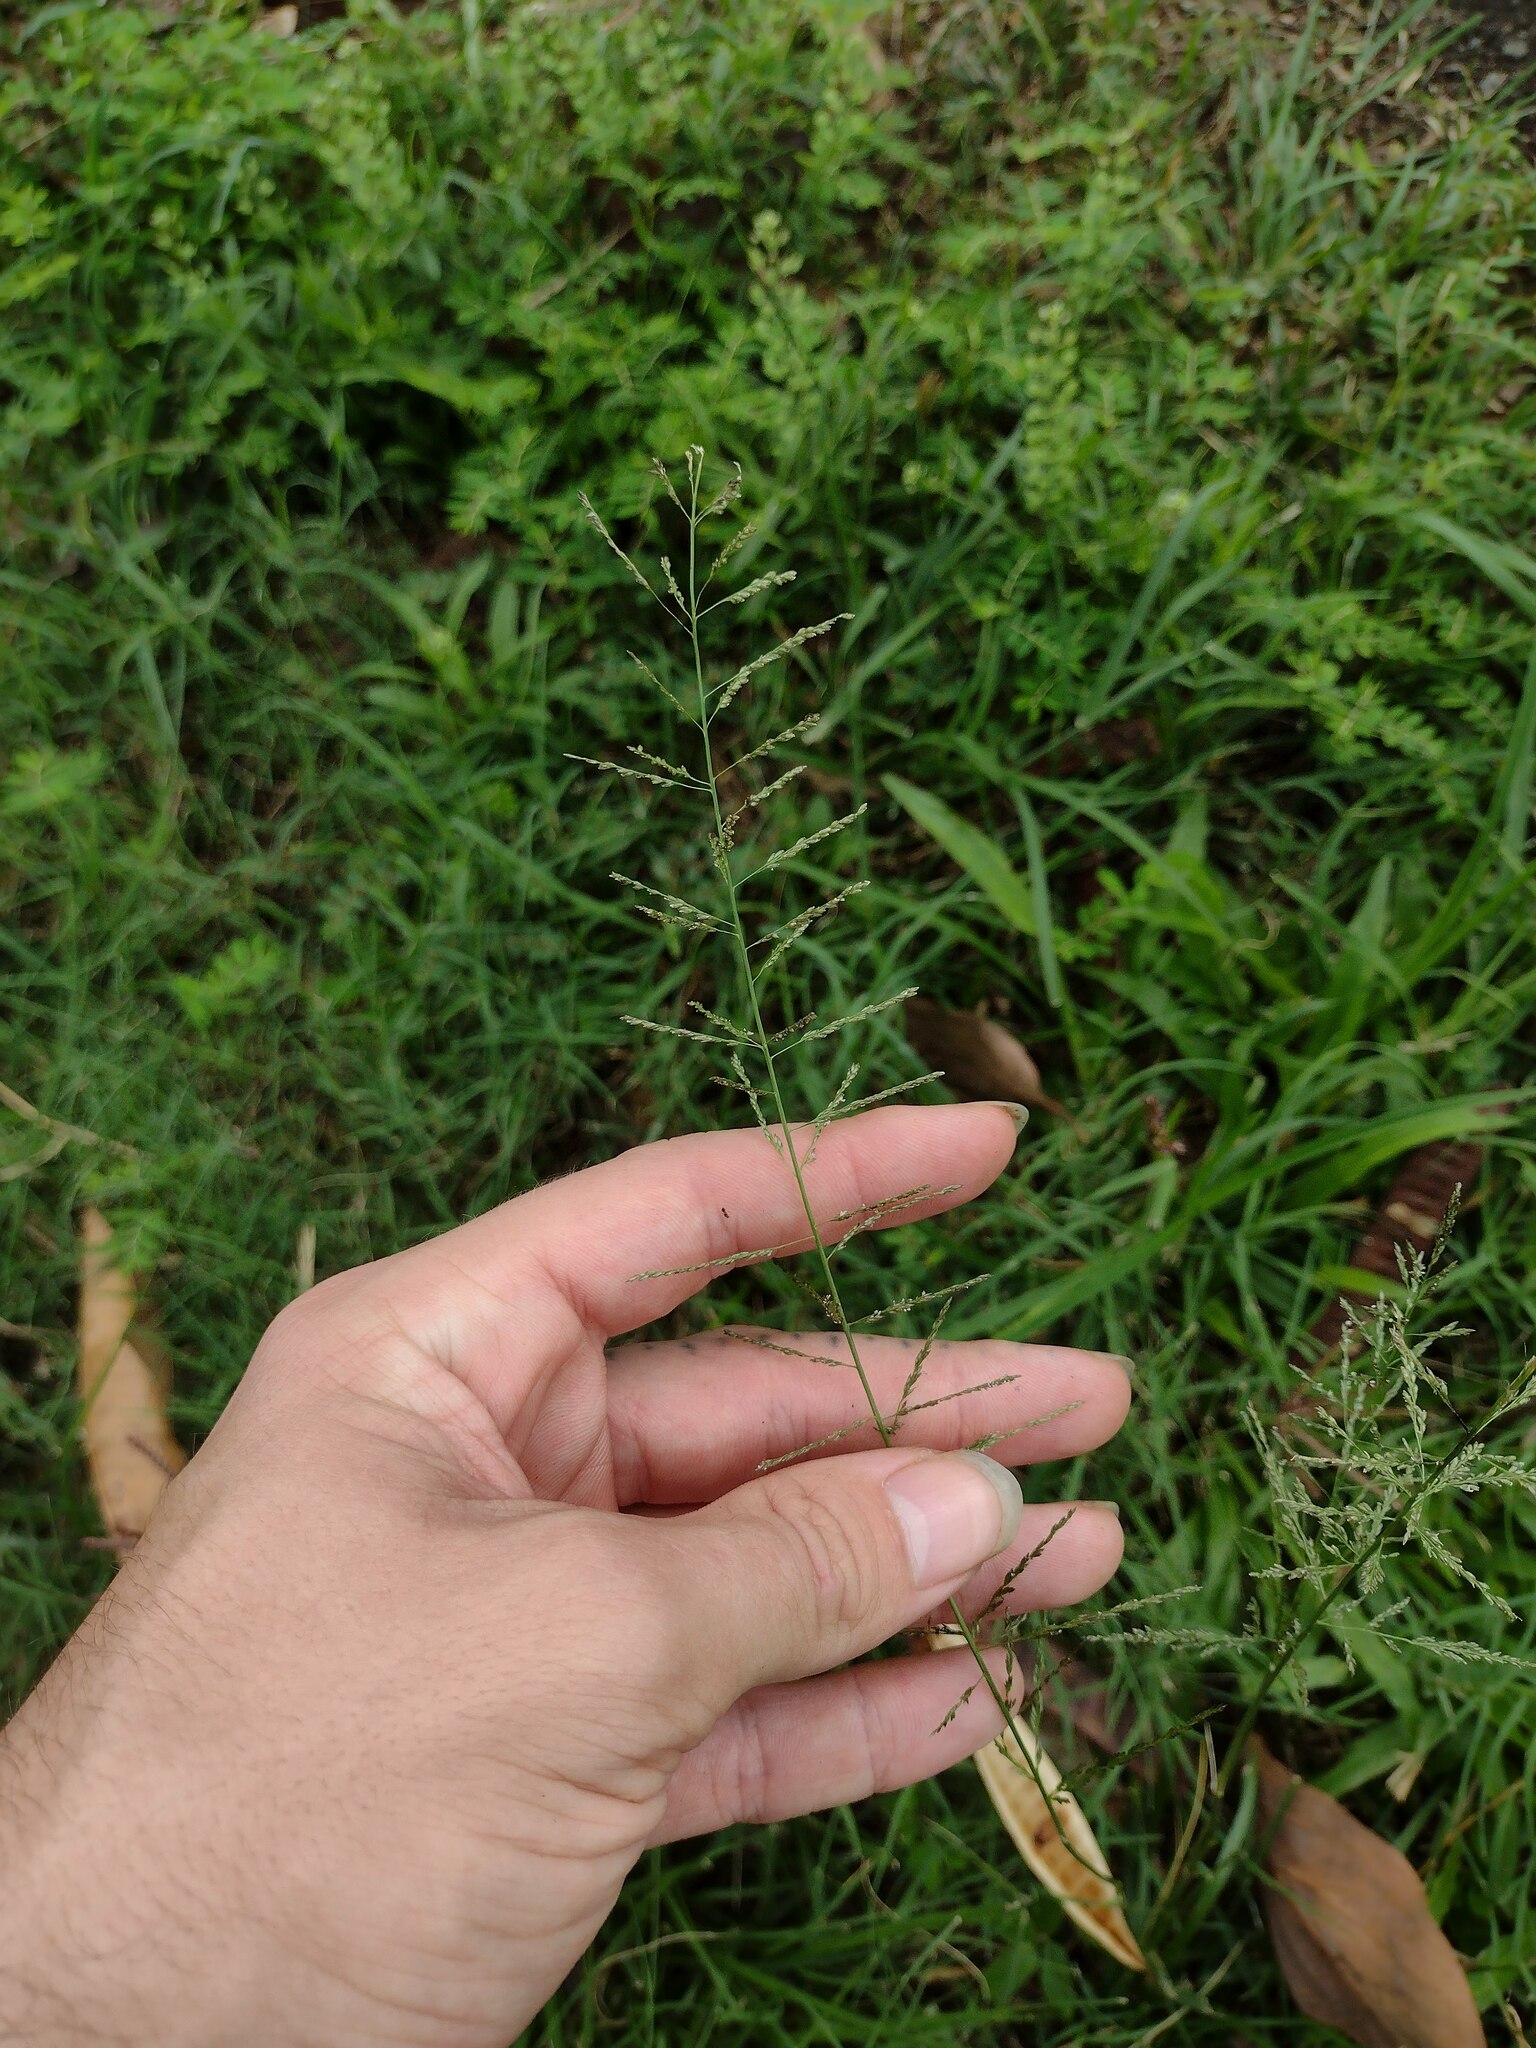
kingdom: Plantae
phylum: Tracheophyta
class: Liliopsida
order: Poales
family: Poaceae
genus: Sporobolus
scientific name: Sporobolus diandrus
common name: Tussock dropseed
